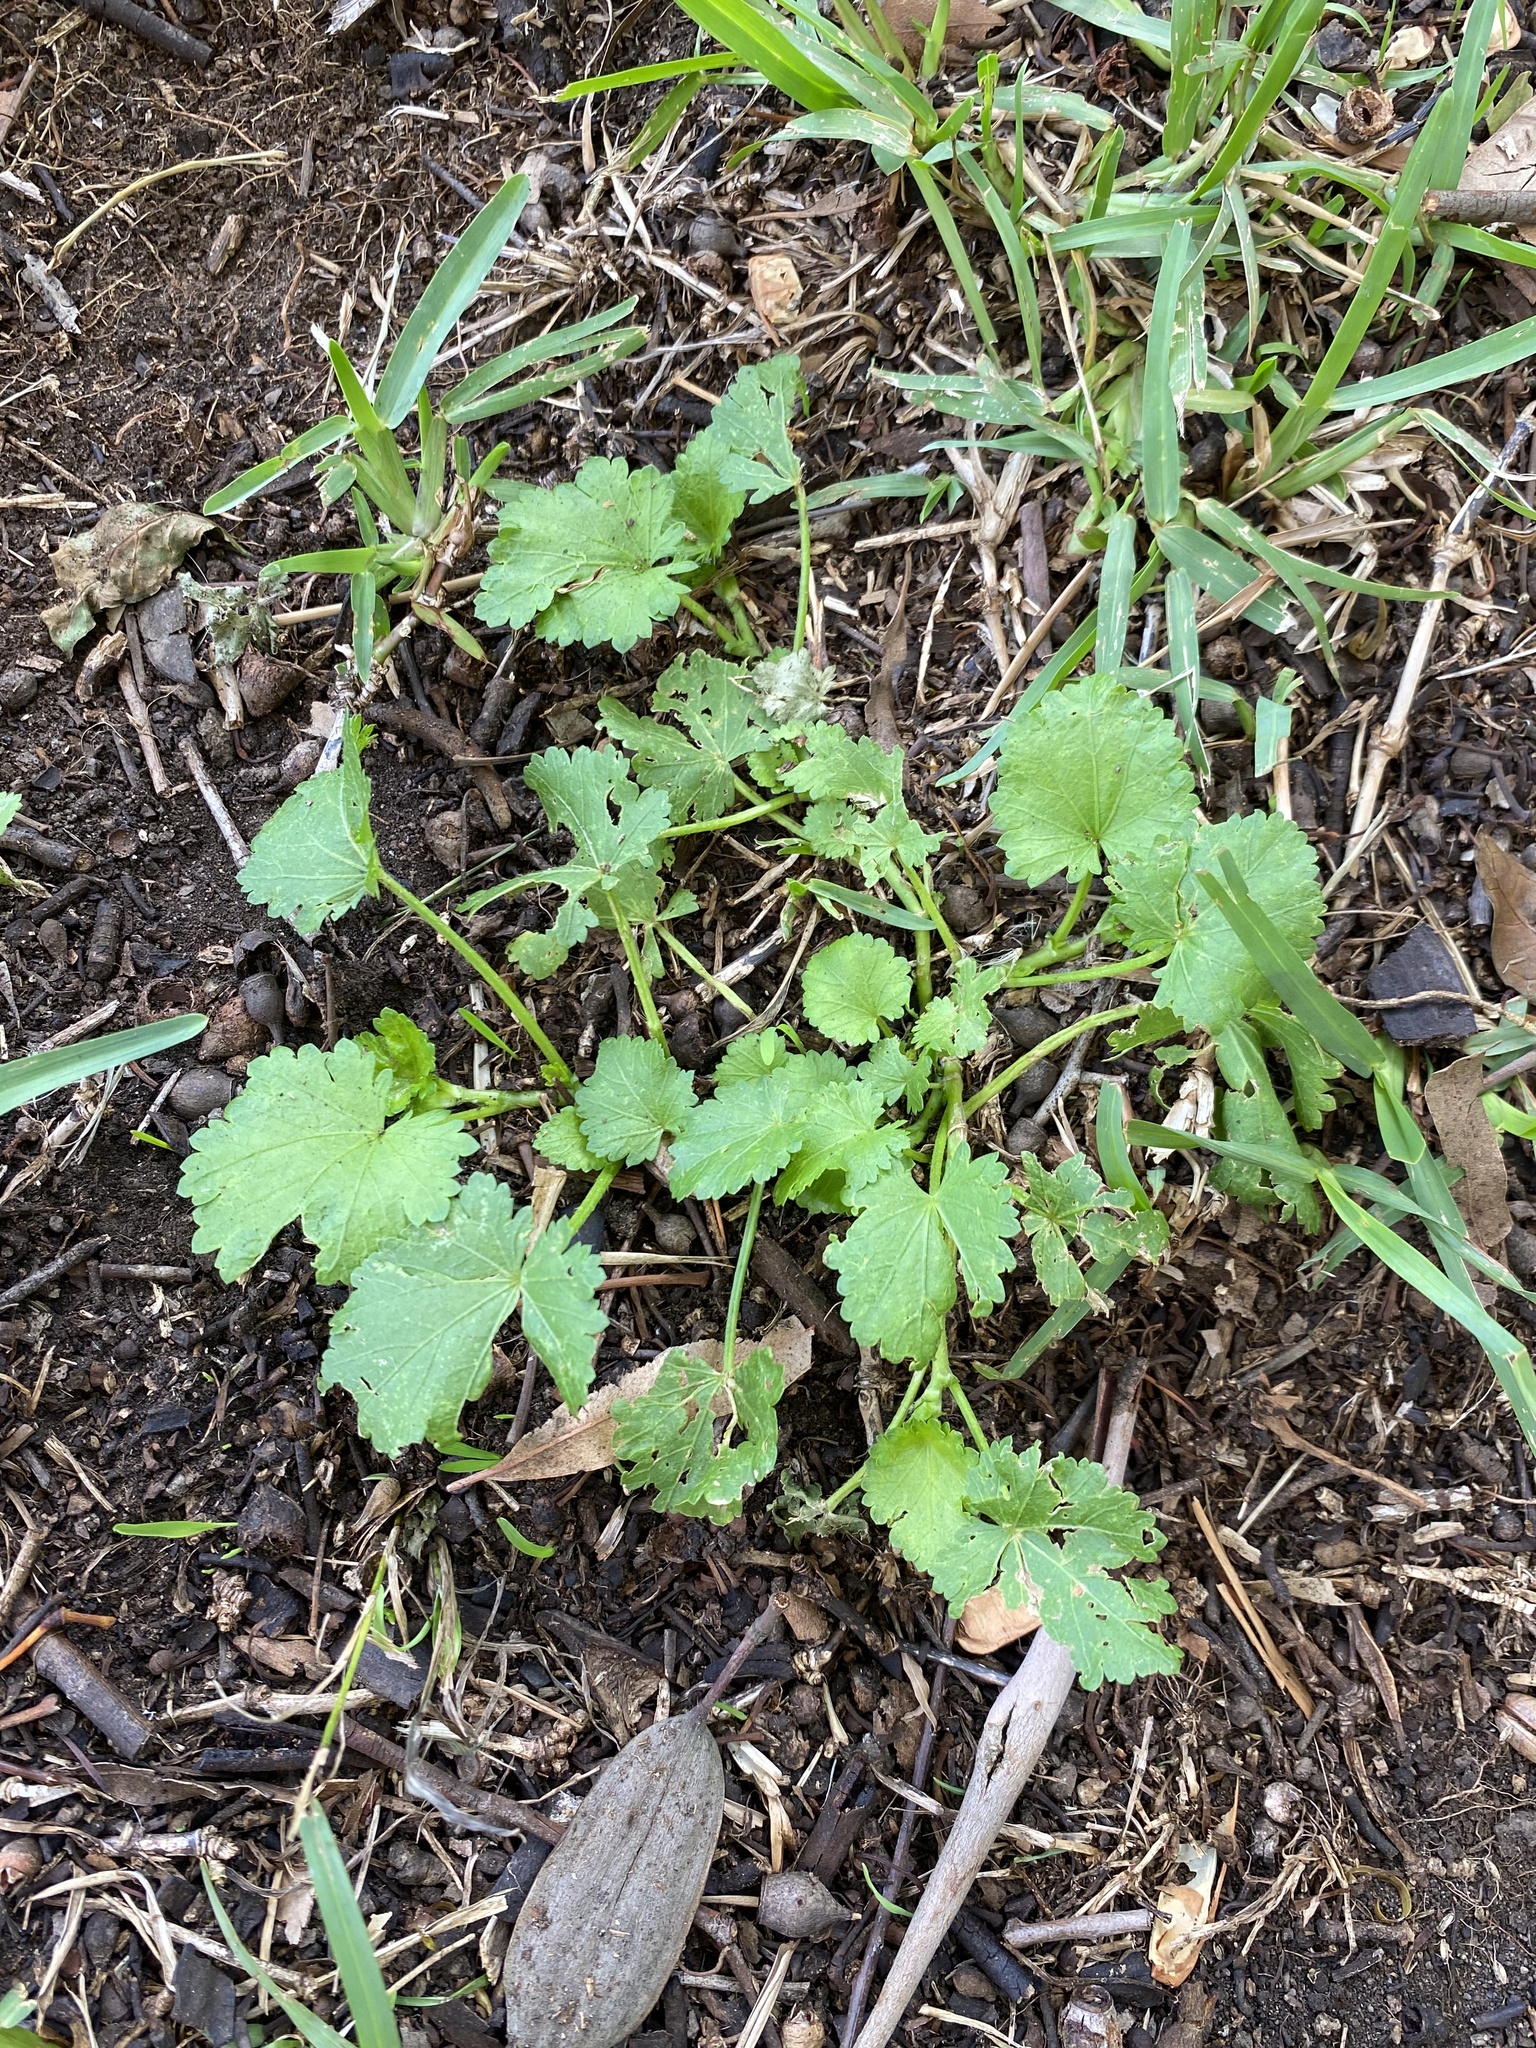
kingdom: Plantae
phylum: Tracheophyta
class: Magnoliopsida
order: Malvales
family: Malvaceae
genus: Modiola
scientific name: Modiola caroliniana
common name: Carolina bristlemallow
